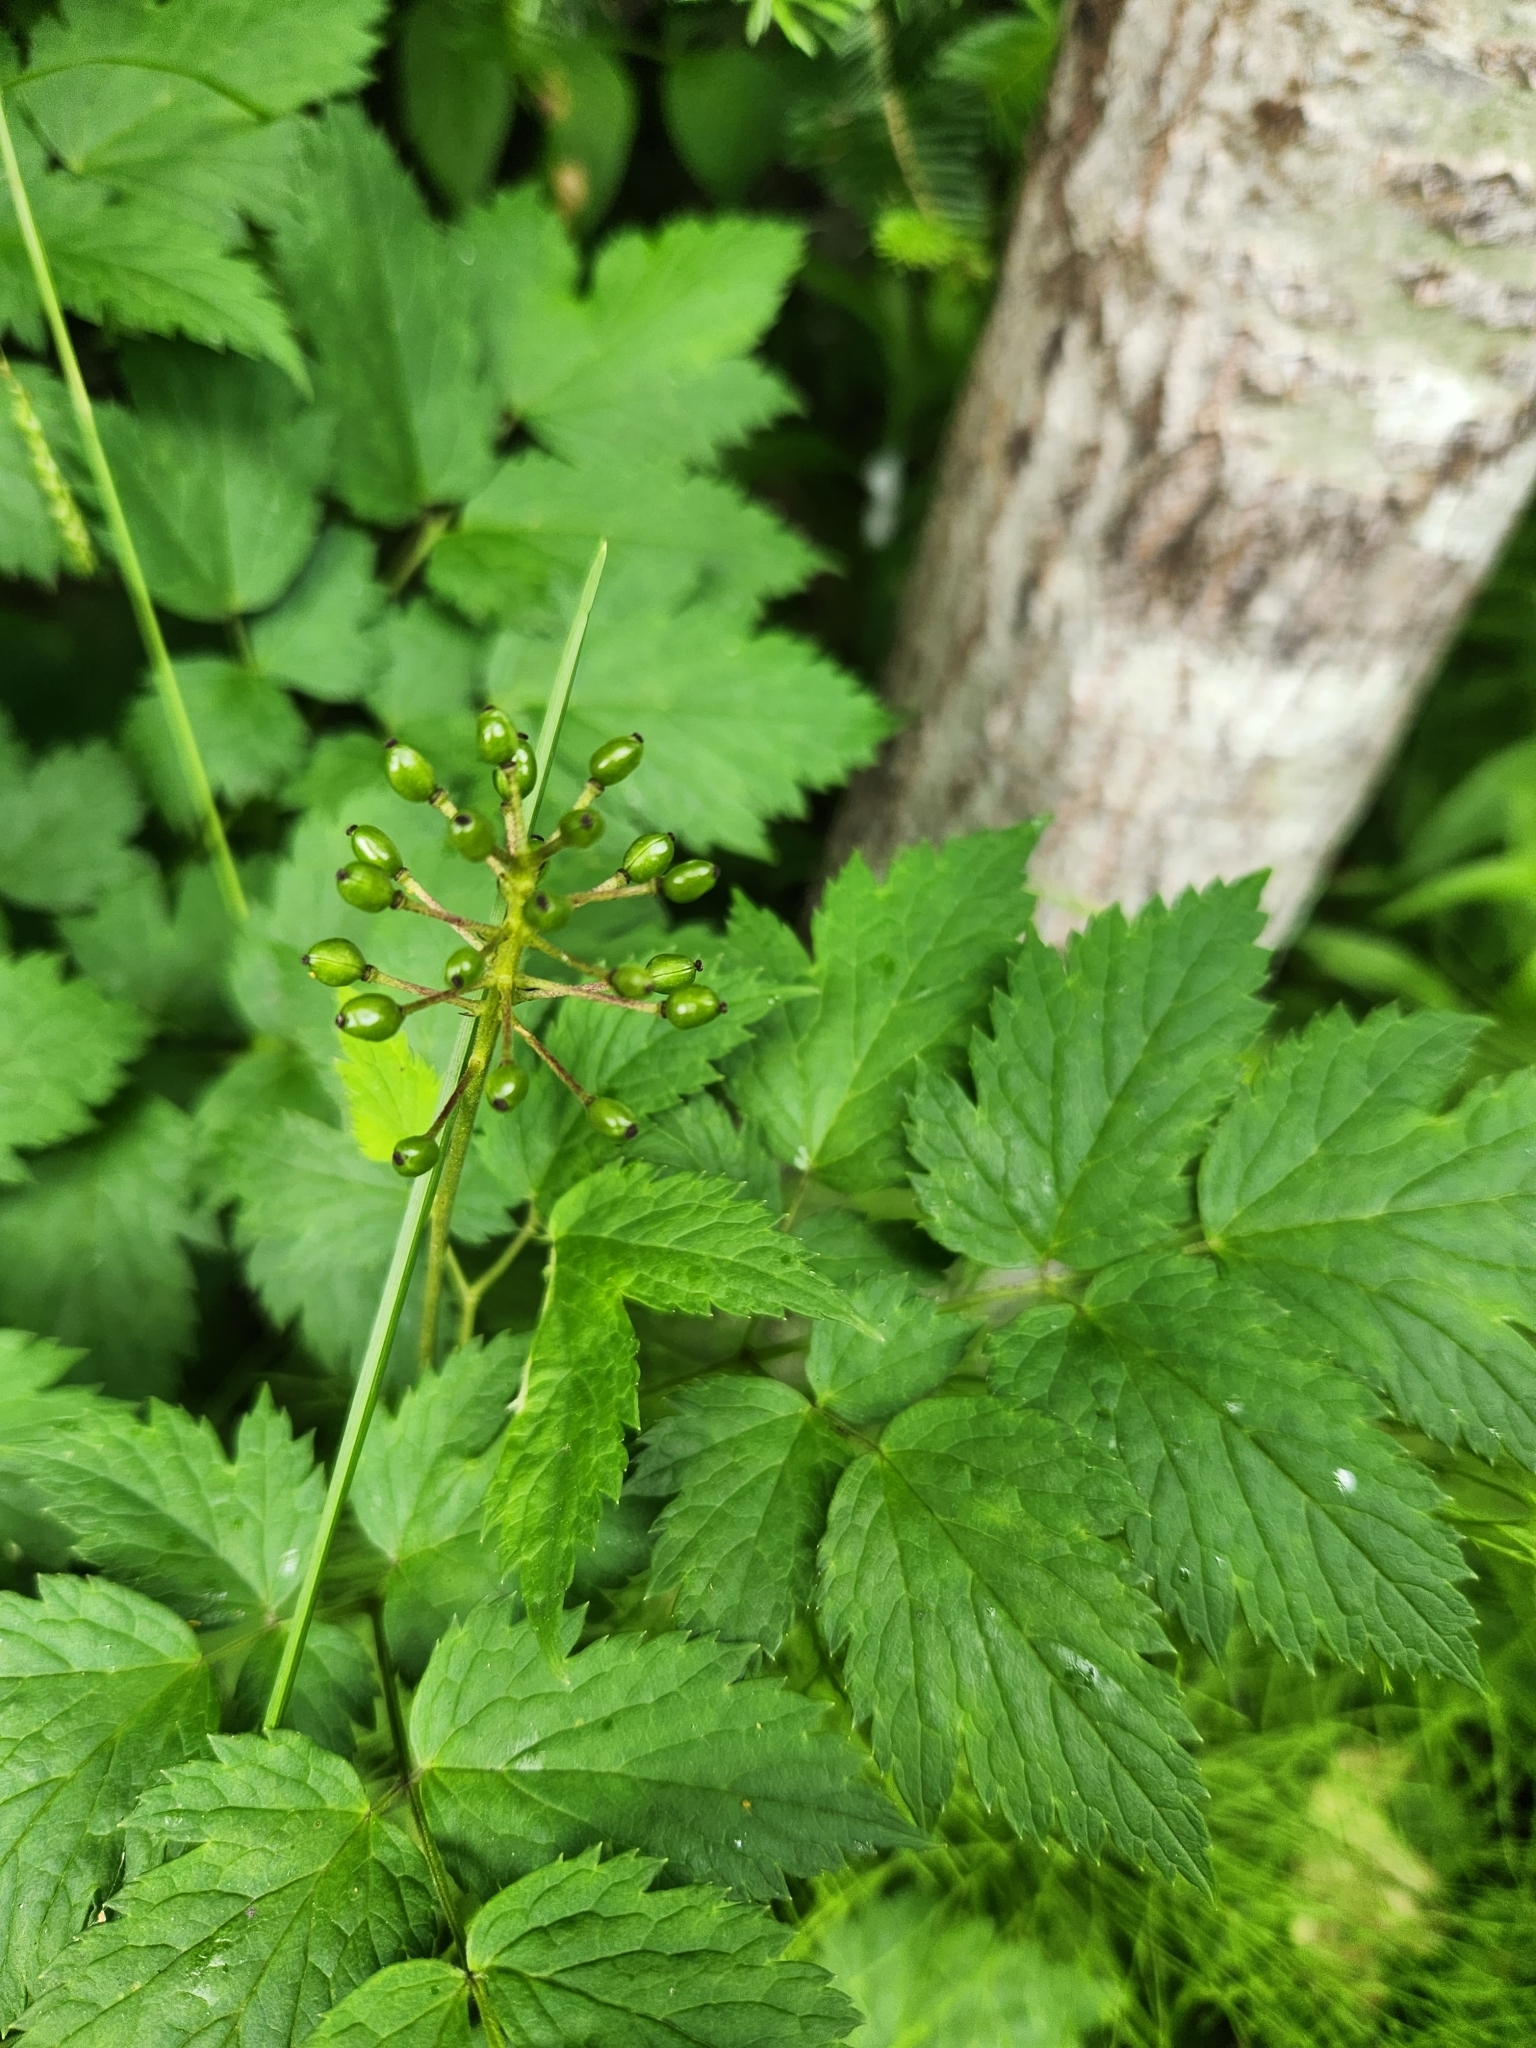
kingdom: Plantae
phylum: Tracheophyta
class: Magnoliopsida
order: Ranunculales
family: Ranunculaceae
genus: Actaea
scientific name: Actaea rubra
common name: Red baneberry
